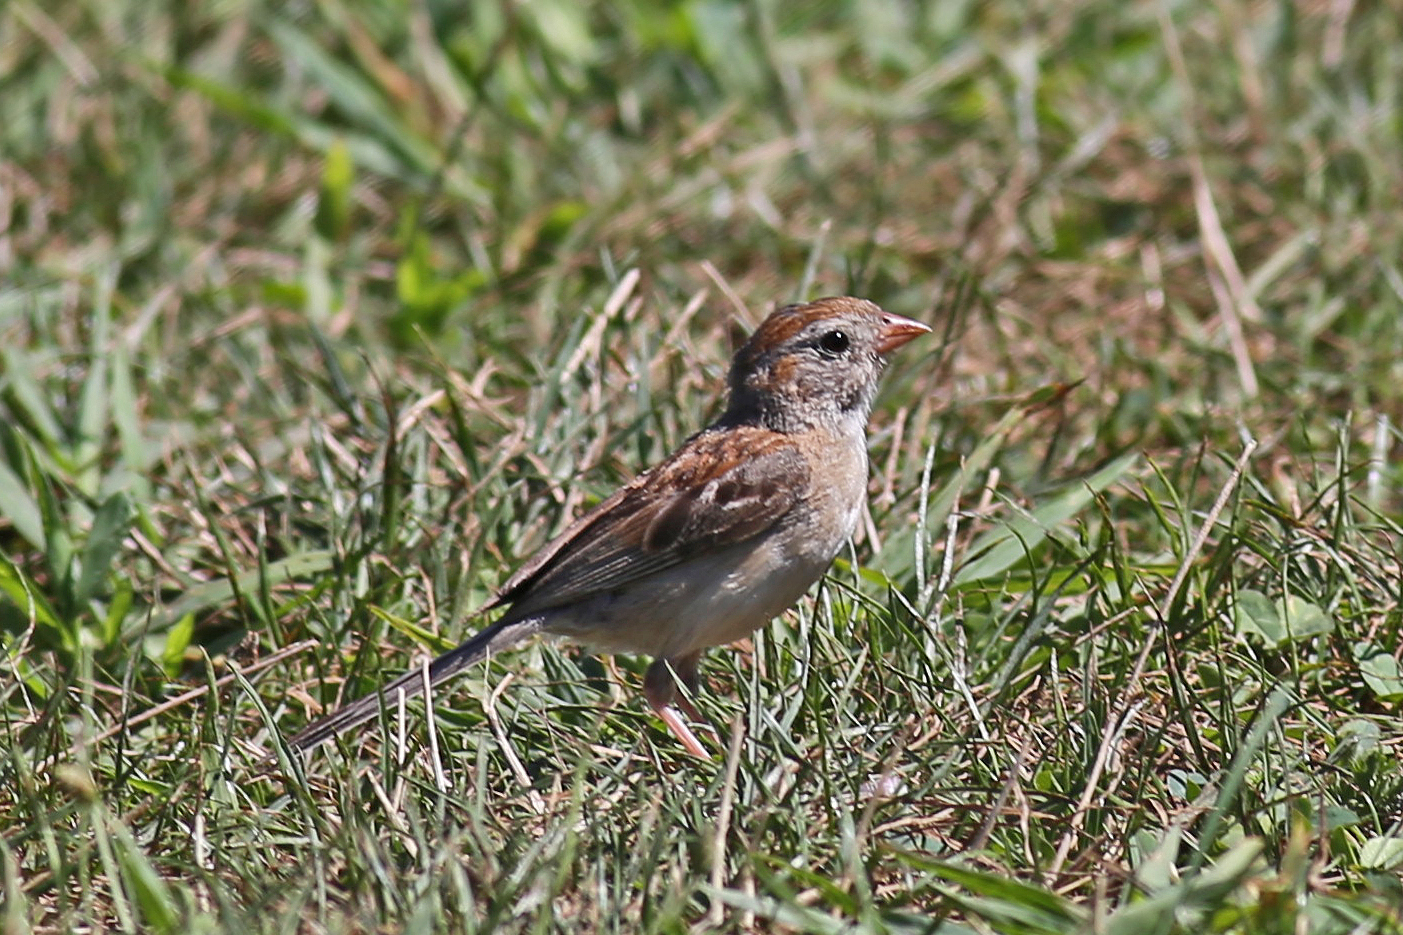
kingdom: Animalia
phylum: Chordata
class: Aves
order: Passeriformes
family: Passerellidae
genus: Spizella
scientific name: Spizella pusilla
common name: Field sparrow
